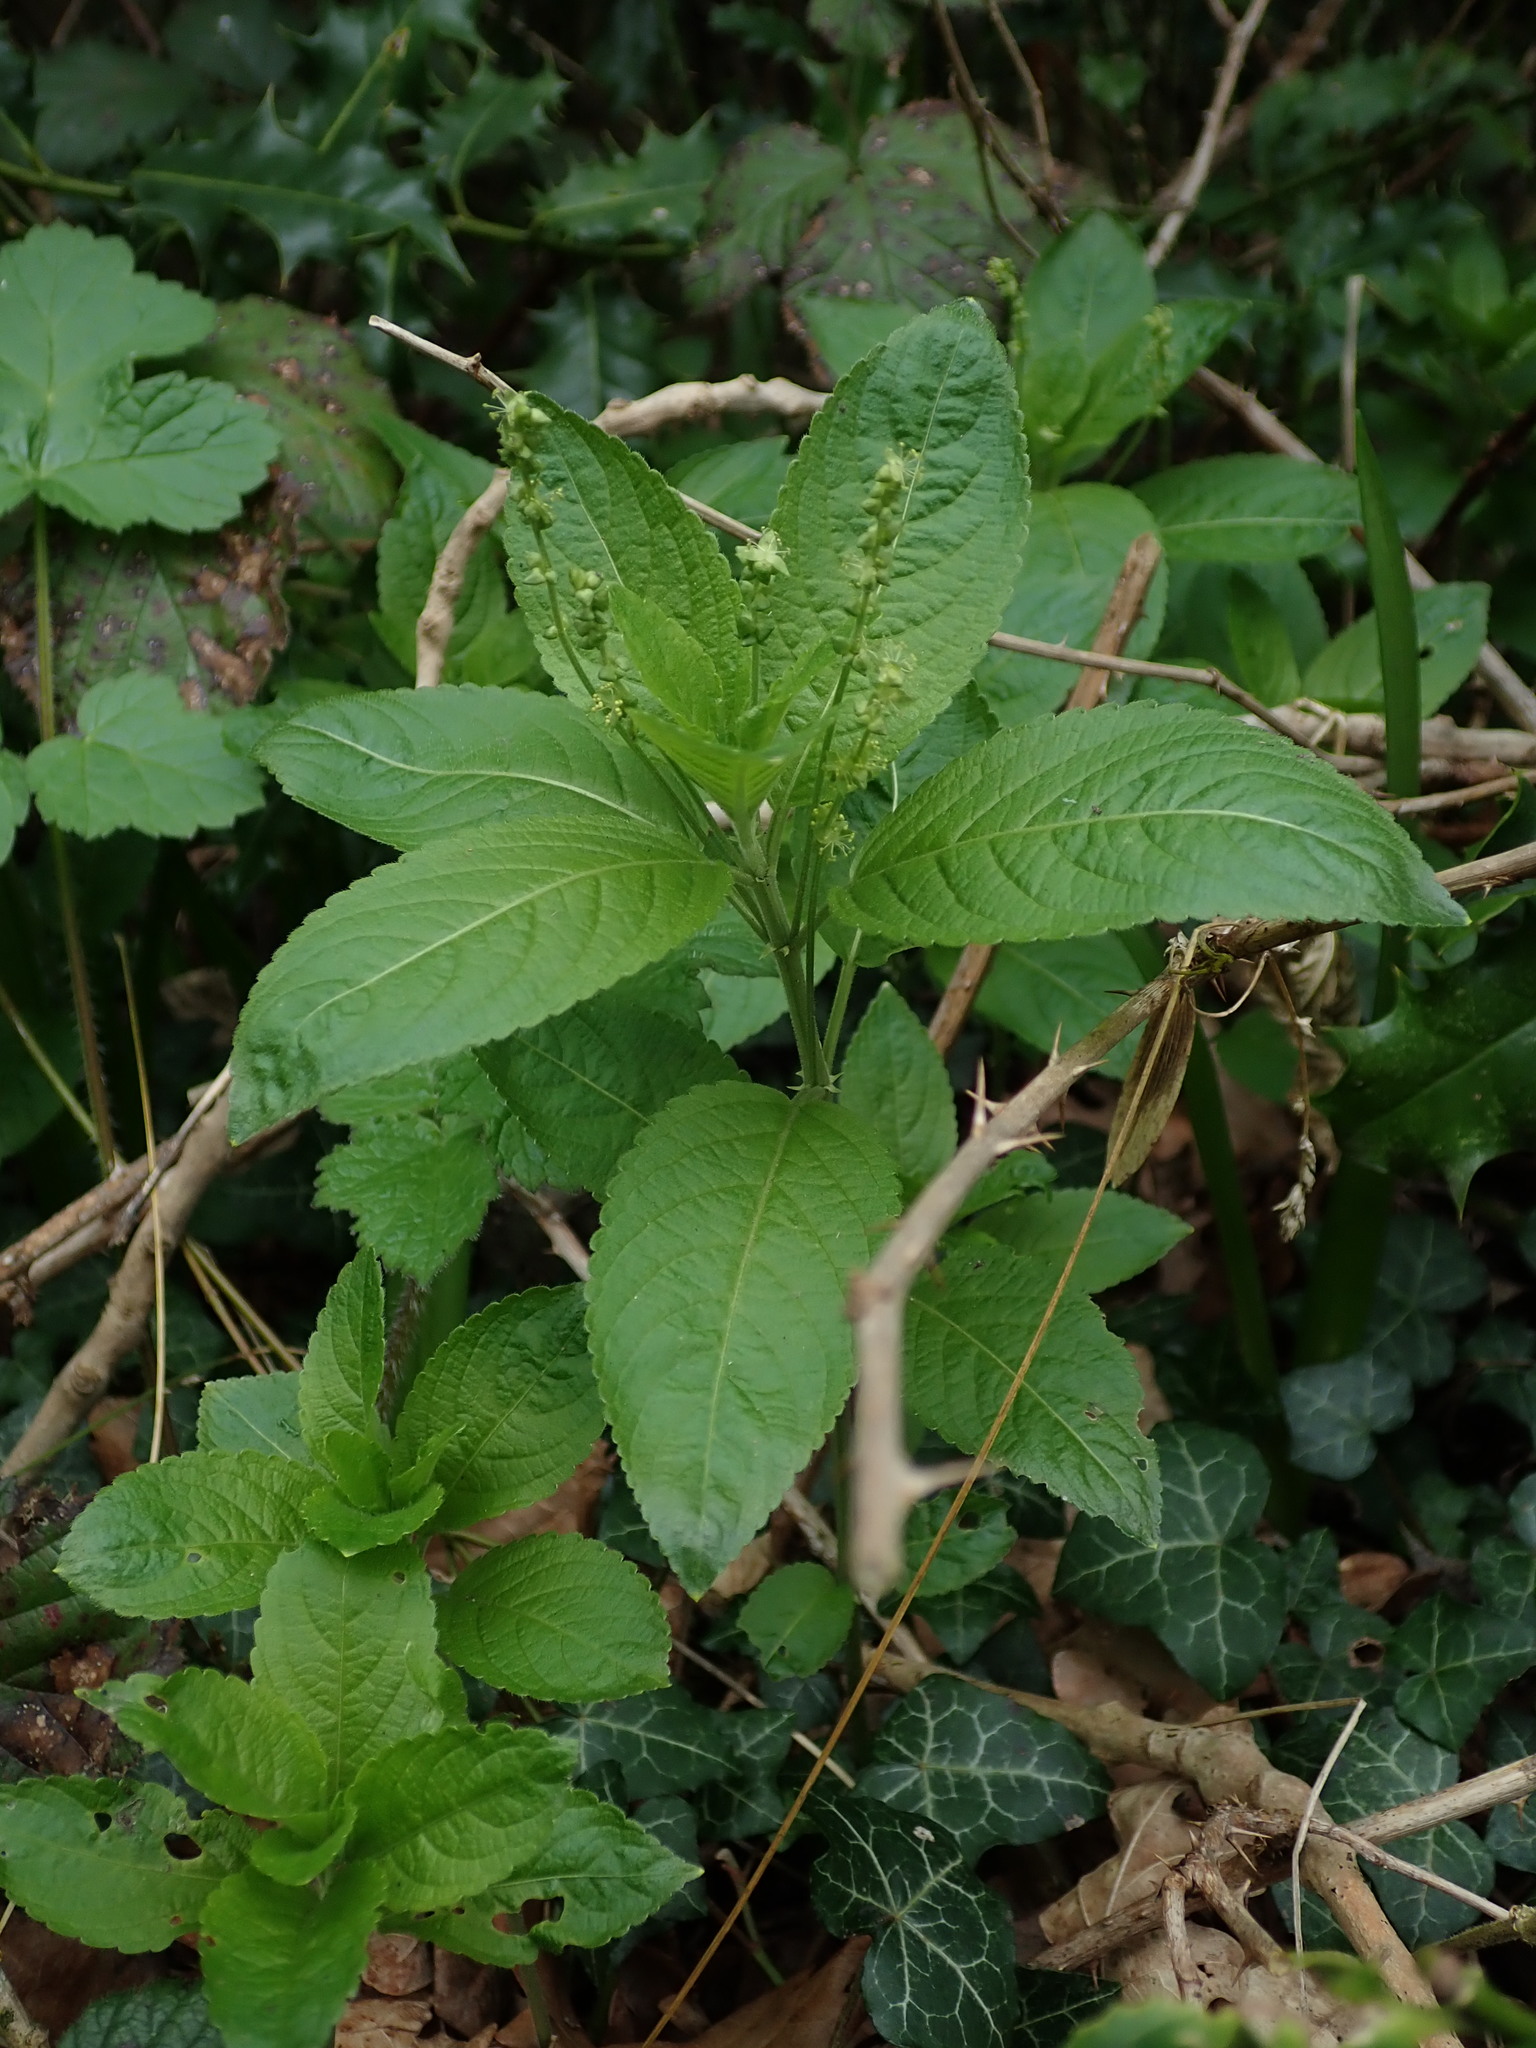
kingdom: Plantae
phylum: Tracheophyta
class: Magnoliopsida
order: Malpighiales
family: Euphorbiaceae
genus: Mercurialis
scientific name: Mercurialis perennis
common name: Dog mercury
